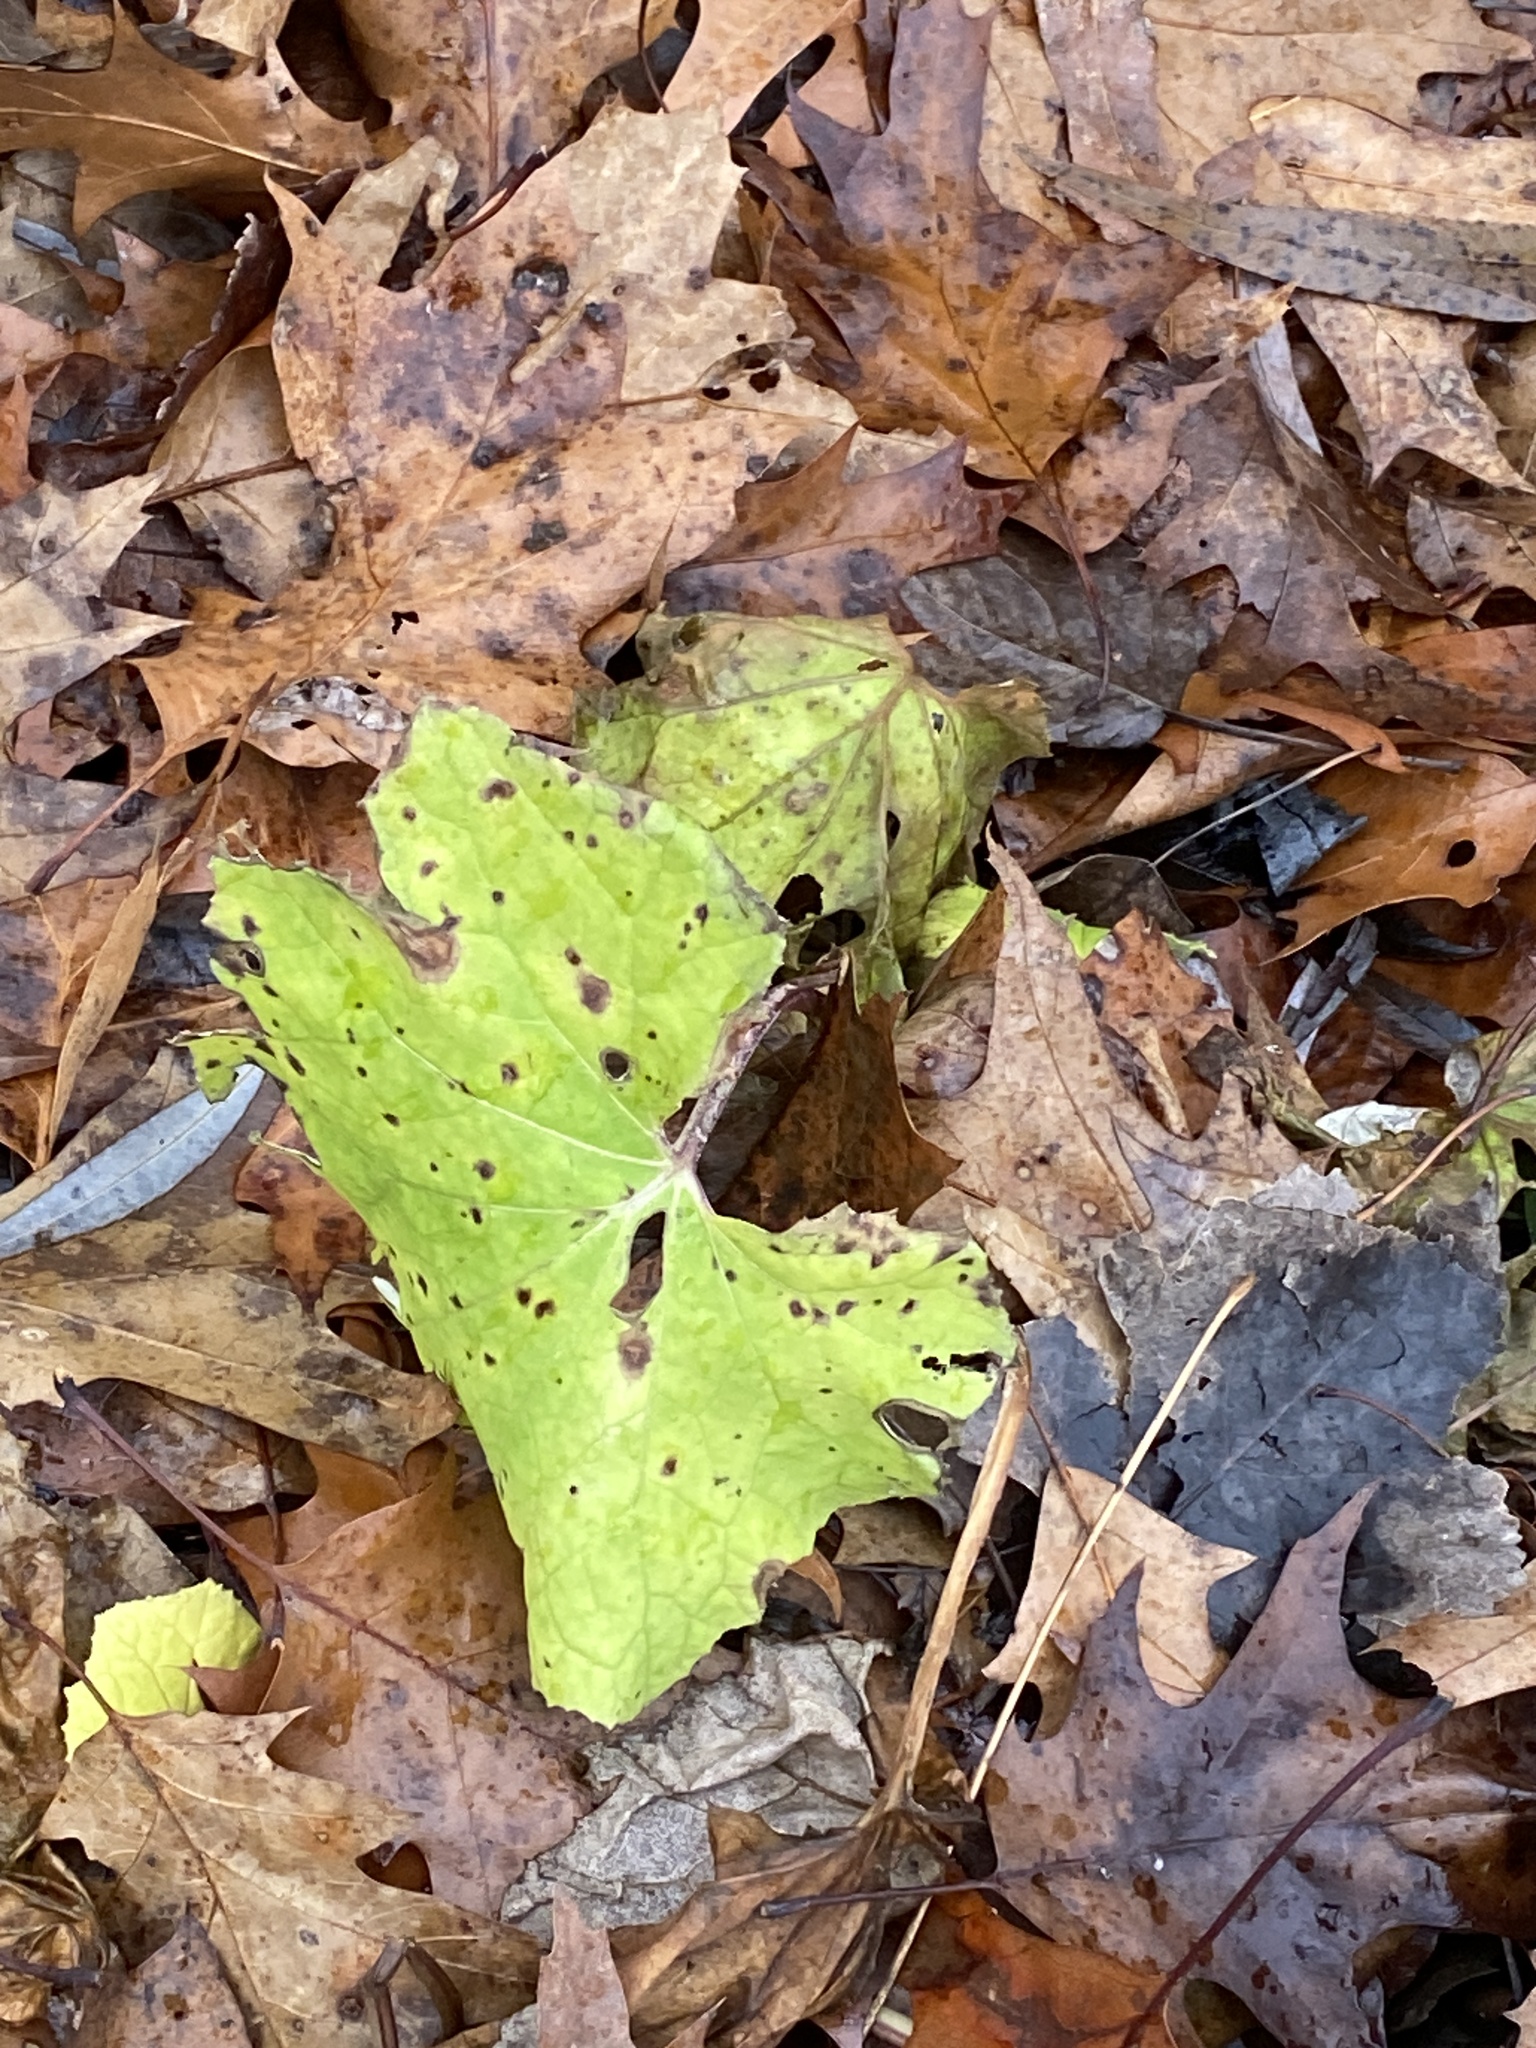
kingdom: Plantae
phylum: Tracheophyta
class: Magnoliopsida
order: Asterales
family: Asteraceae
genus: Tussilago
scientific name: Tussilago farfara
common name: Coltsfoot
